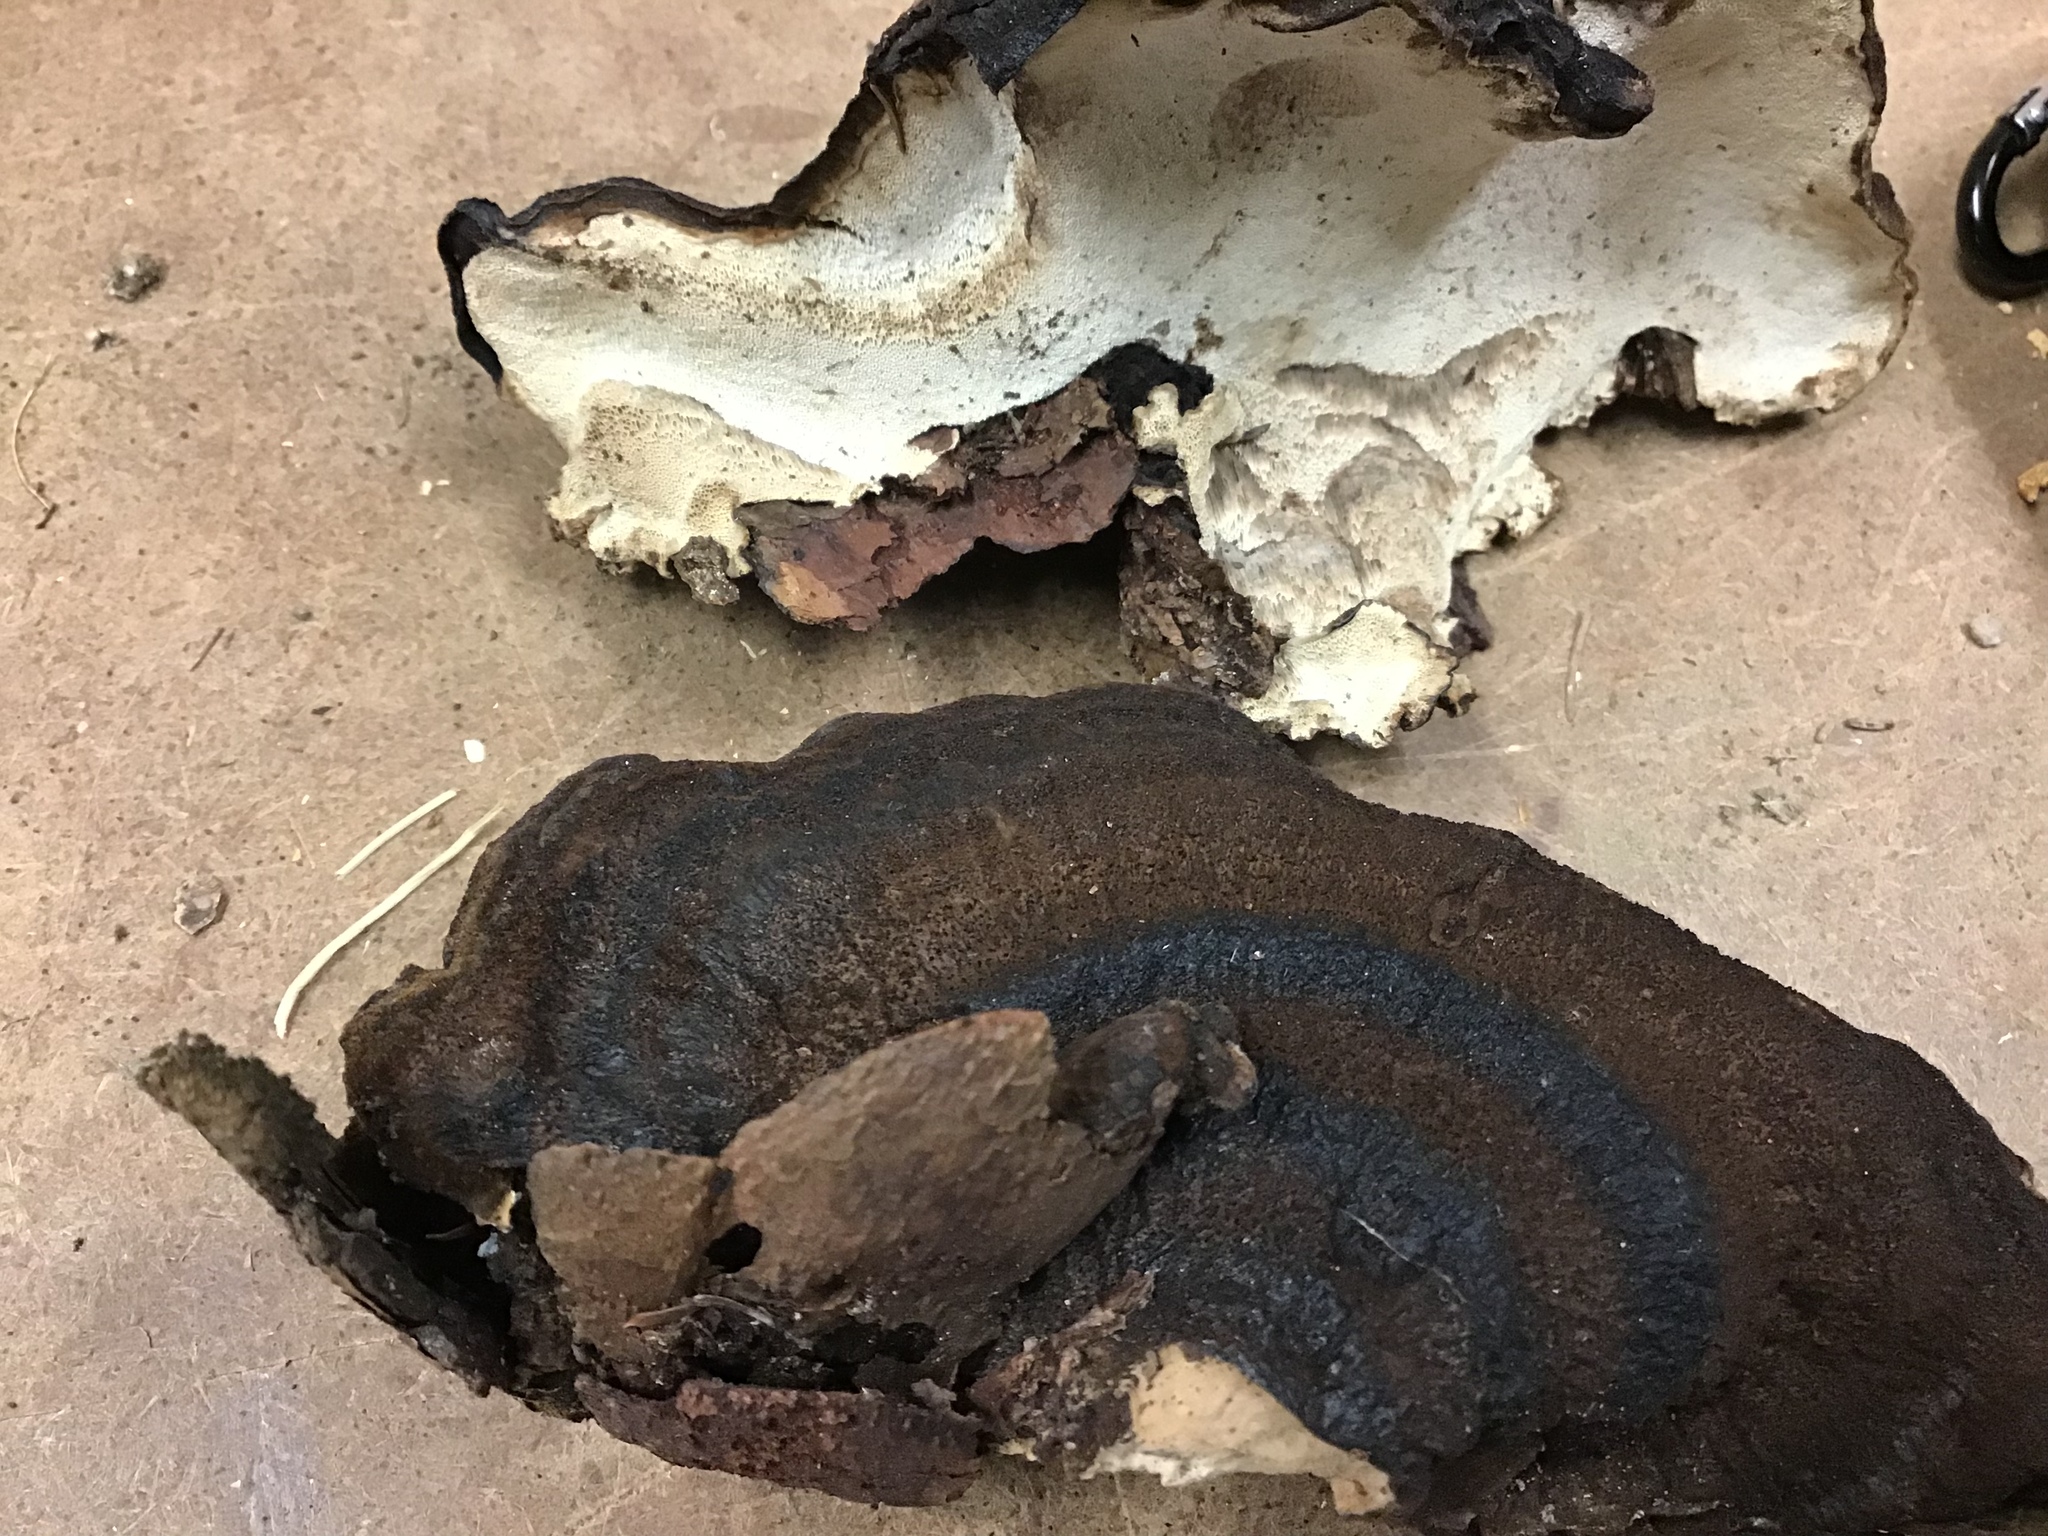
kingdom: Fungi
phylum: Basidiomycota
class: Agaricomycetes
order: Polyporales
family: Ischnodermataceae
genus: Ischnoderma
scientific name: Ischnoderma benzoinum
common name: Benzoin bracket
